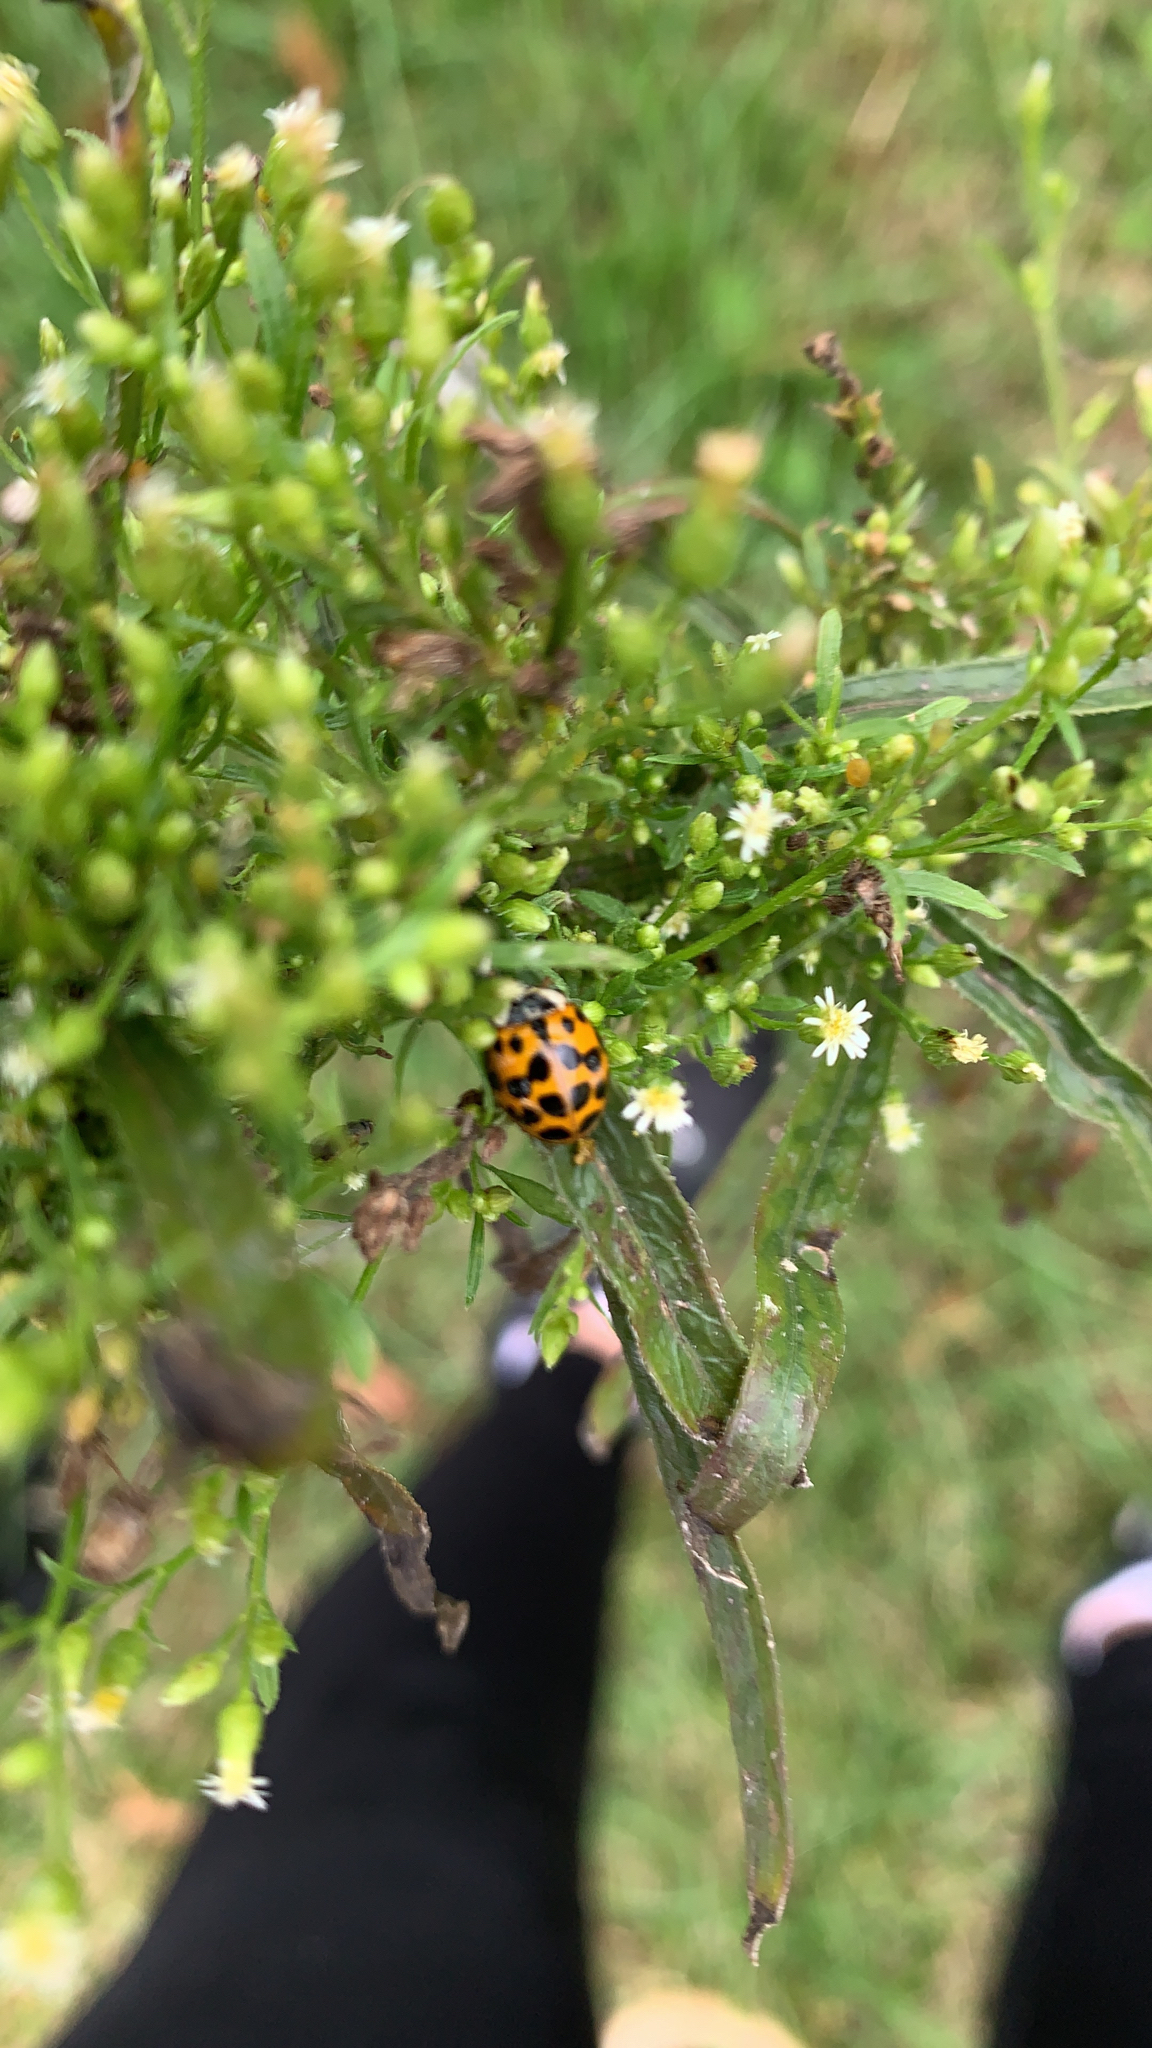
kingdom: Animalia
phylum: Arthropoda
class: Insecta
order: Coleoptera
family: Coccinellidae
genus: Harmonia
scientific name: Harmonia axyridis
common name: Harlequin ladybird
